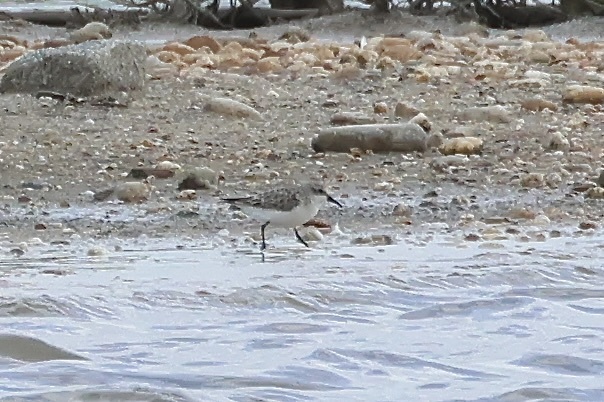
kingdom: Animalia
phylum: Chordata
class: Aves
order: Charadriiformes
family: Scolopacidae
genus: Calidris
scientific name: Calidris minuta
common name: Little stint
